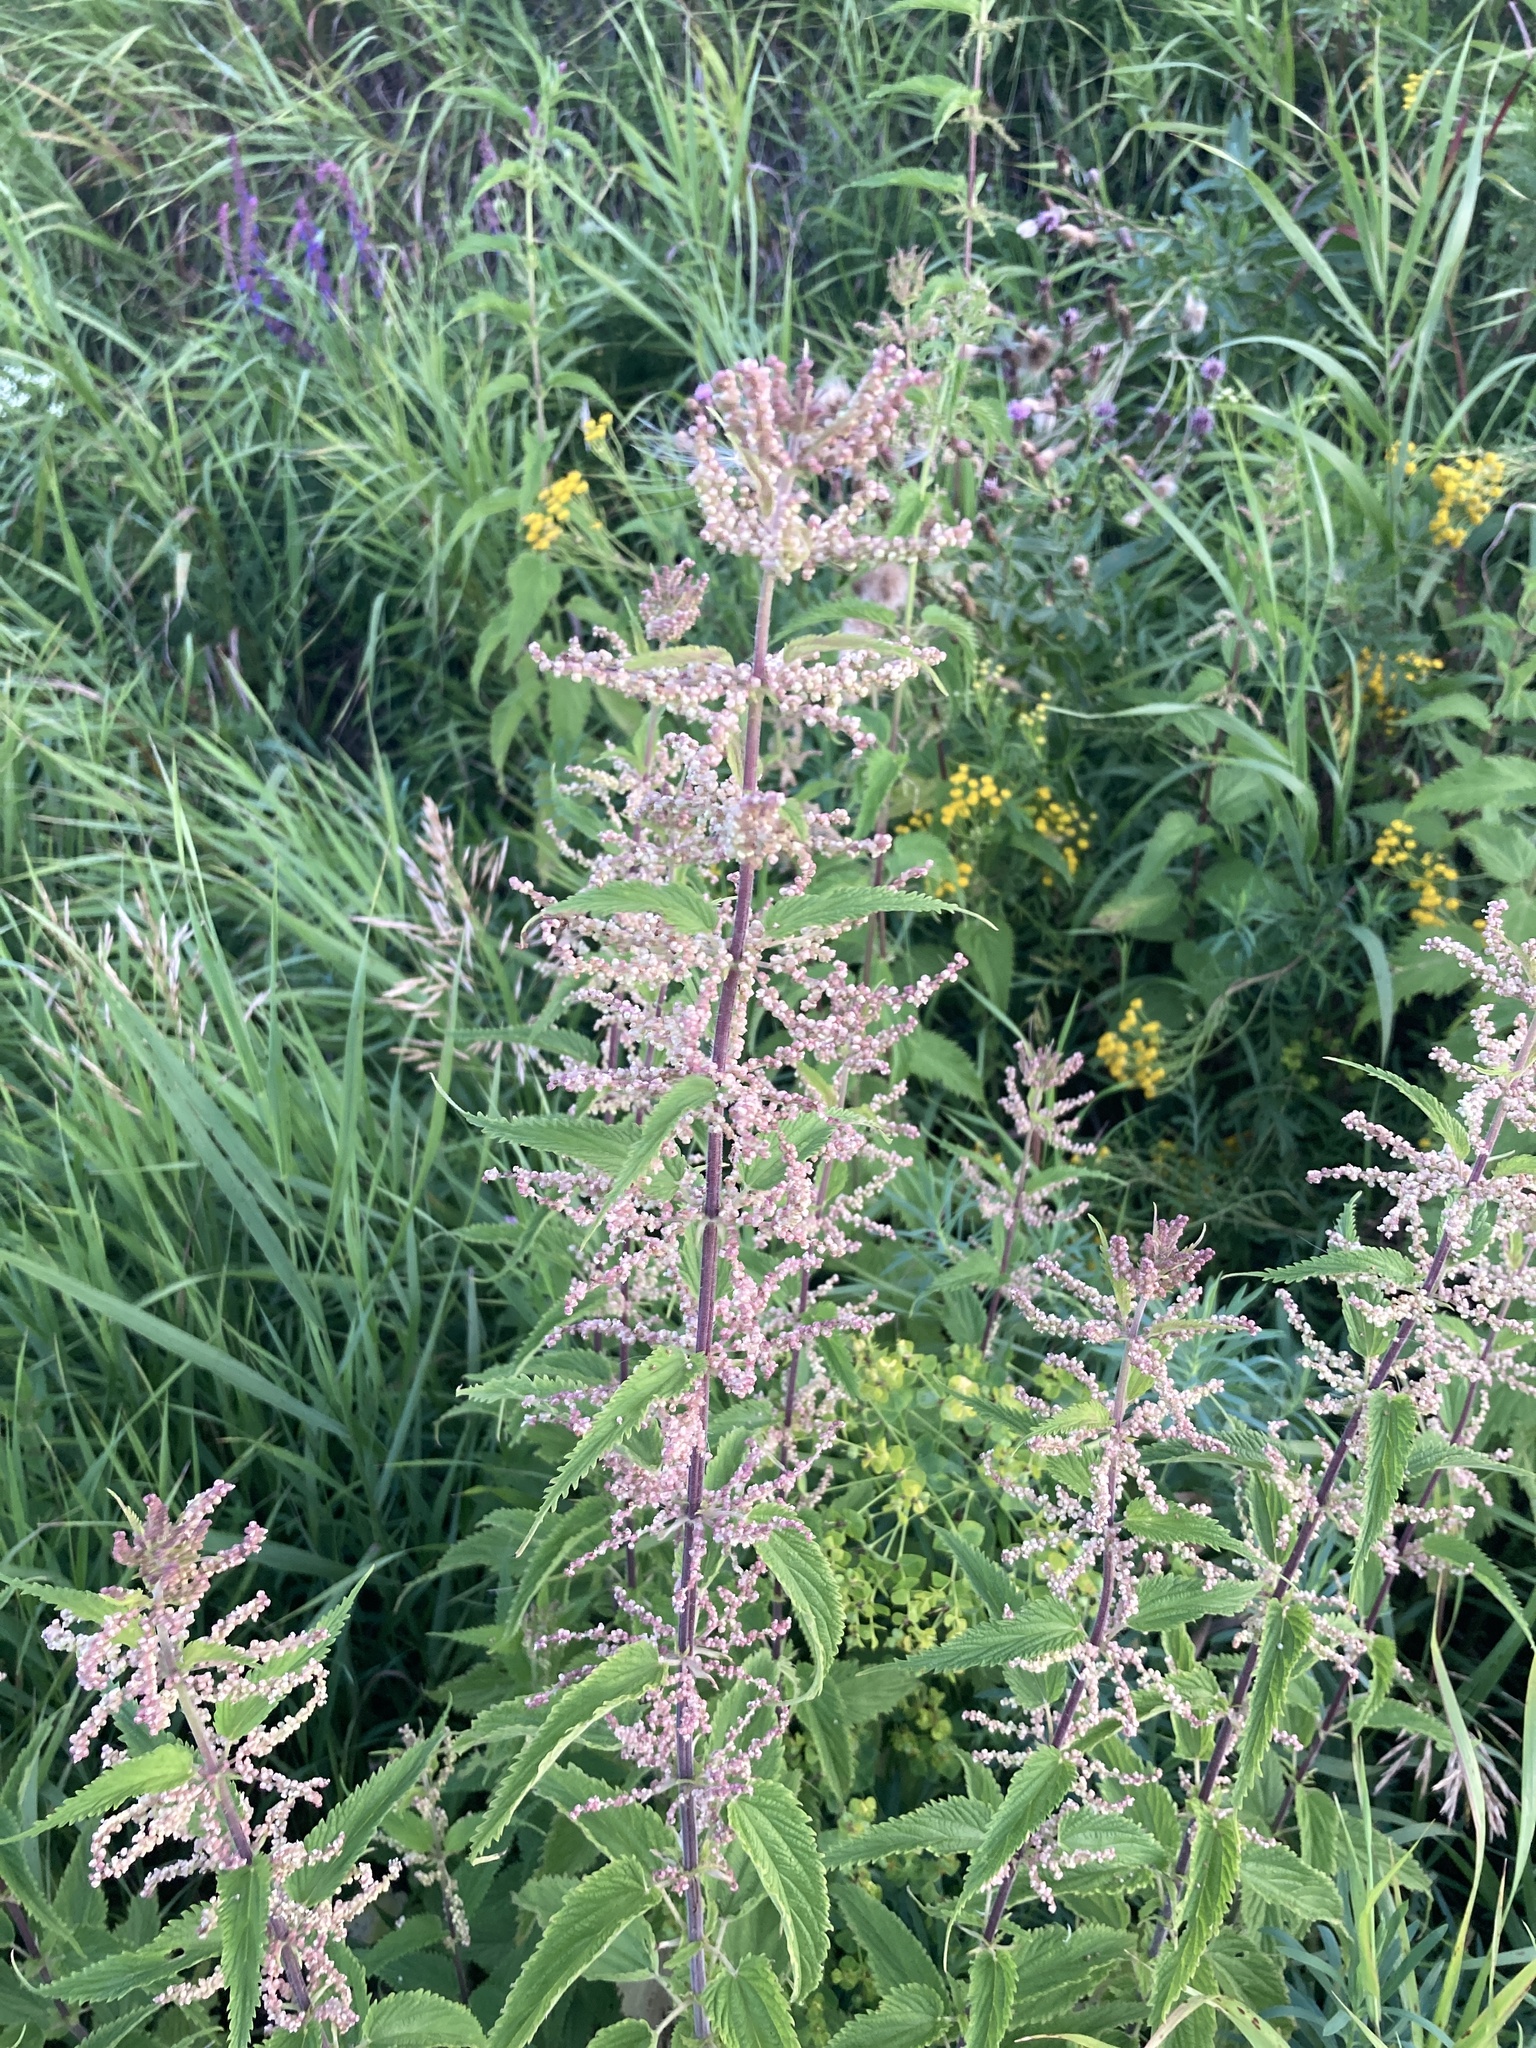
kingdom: Plantae
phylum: Tracheophyta
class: Magnoliopsida
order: Rosales
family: Urticaceae
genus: Urtica
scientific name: Urtica dioica
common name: Common nettle
